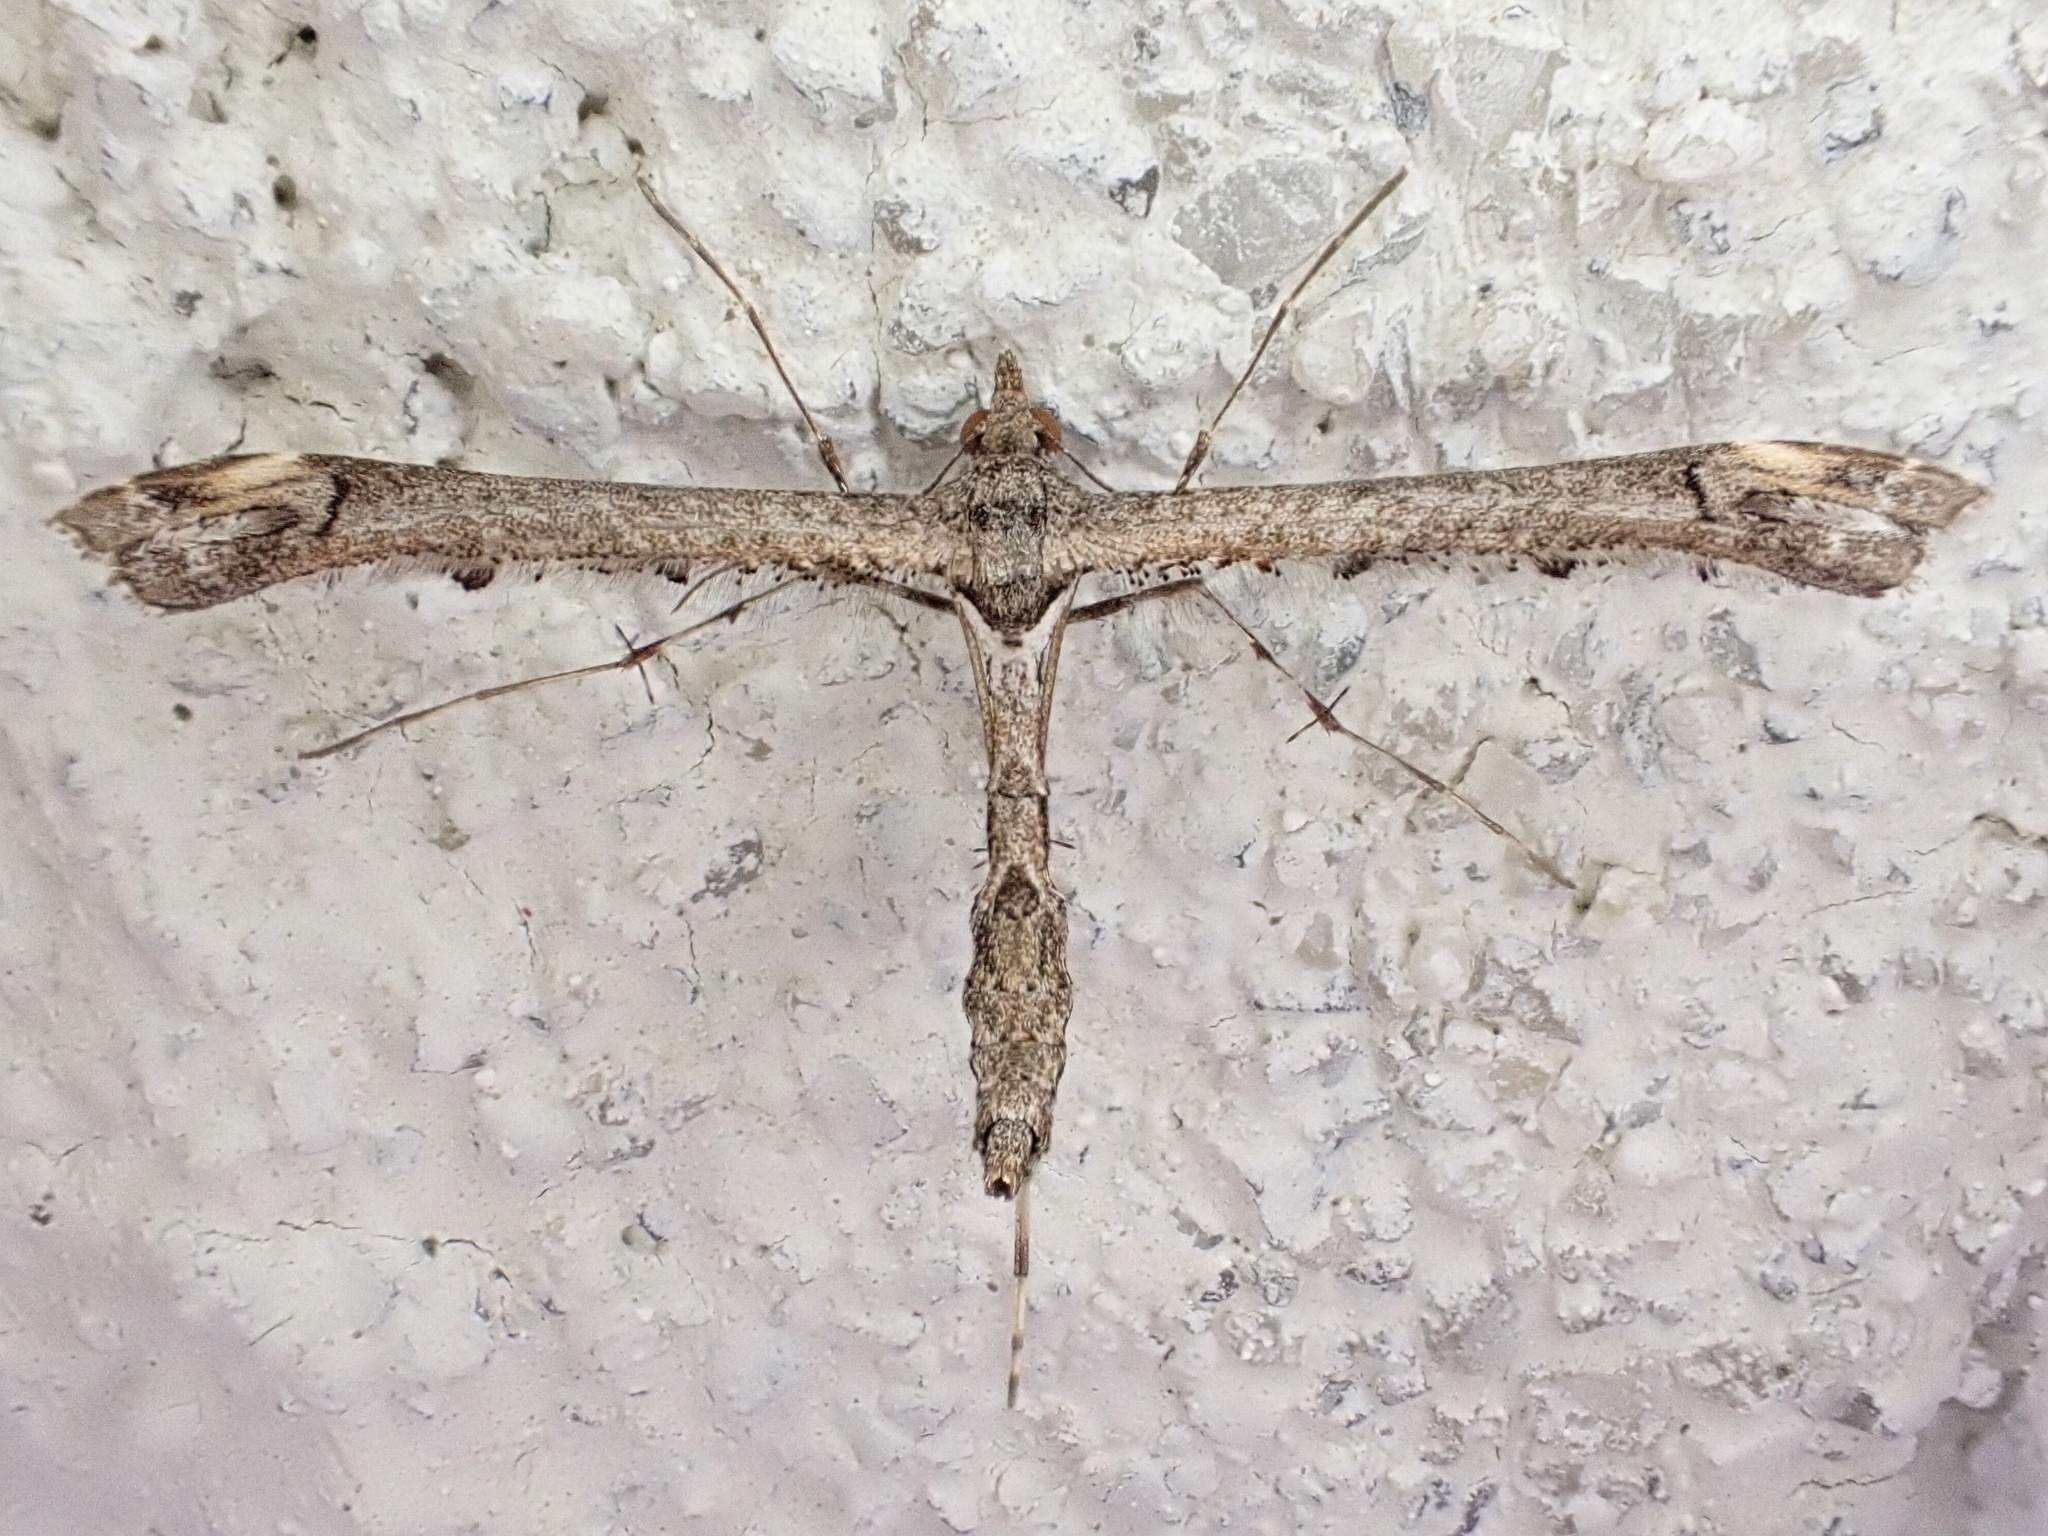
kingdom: Animalia
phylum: Arthropoda
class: Insecta
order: Lepidoptera
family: Pterophoridae
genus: Anstenoptilia
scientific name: Anstenoptilia marmarodactyla
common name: Moth
